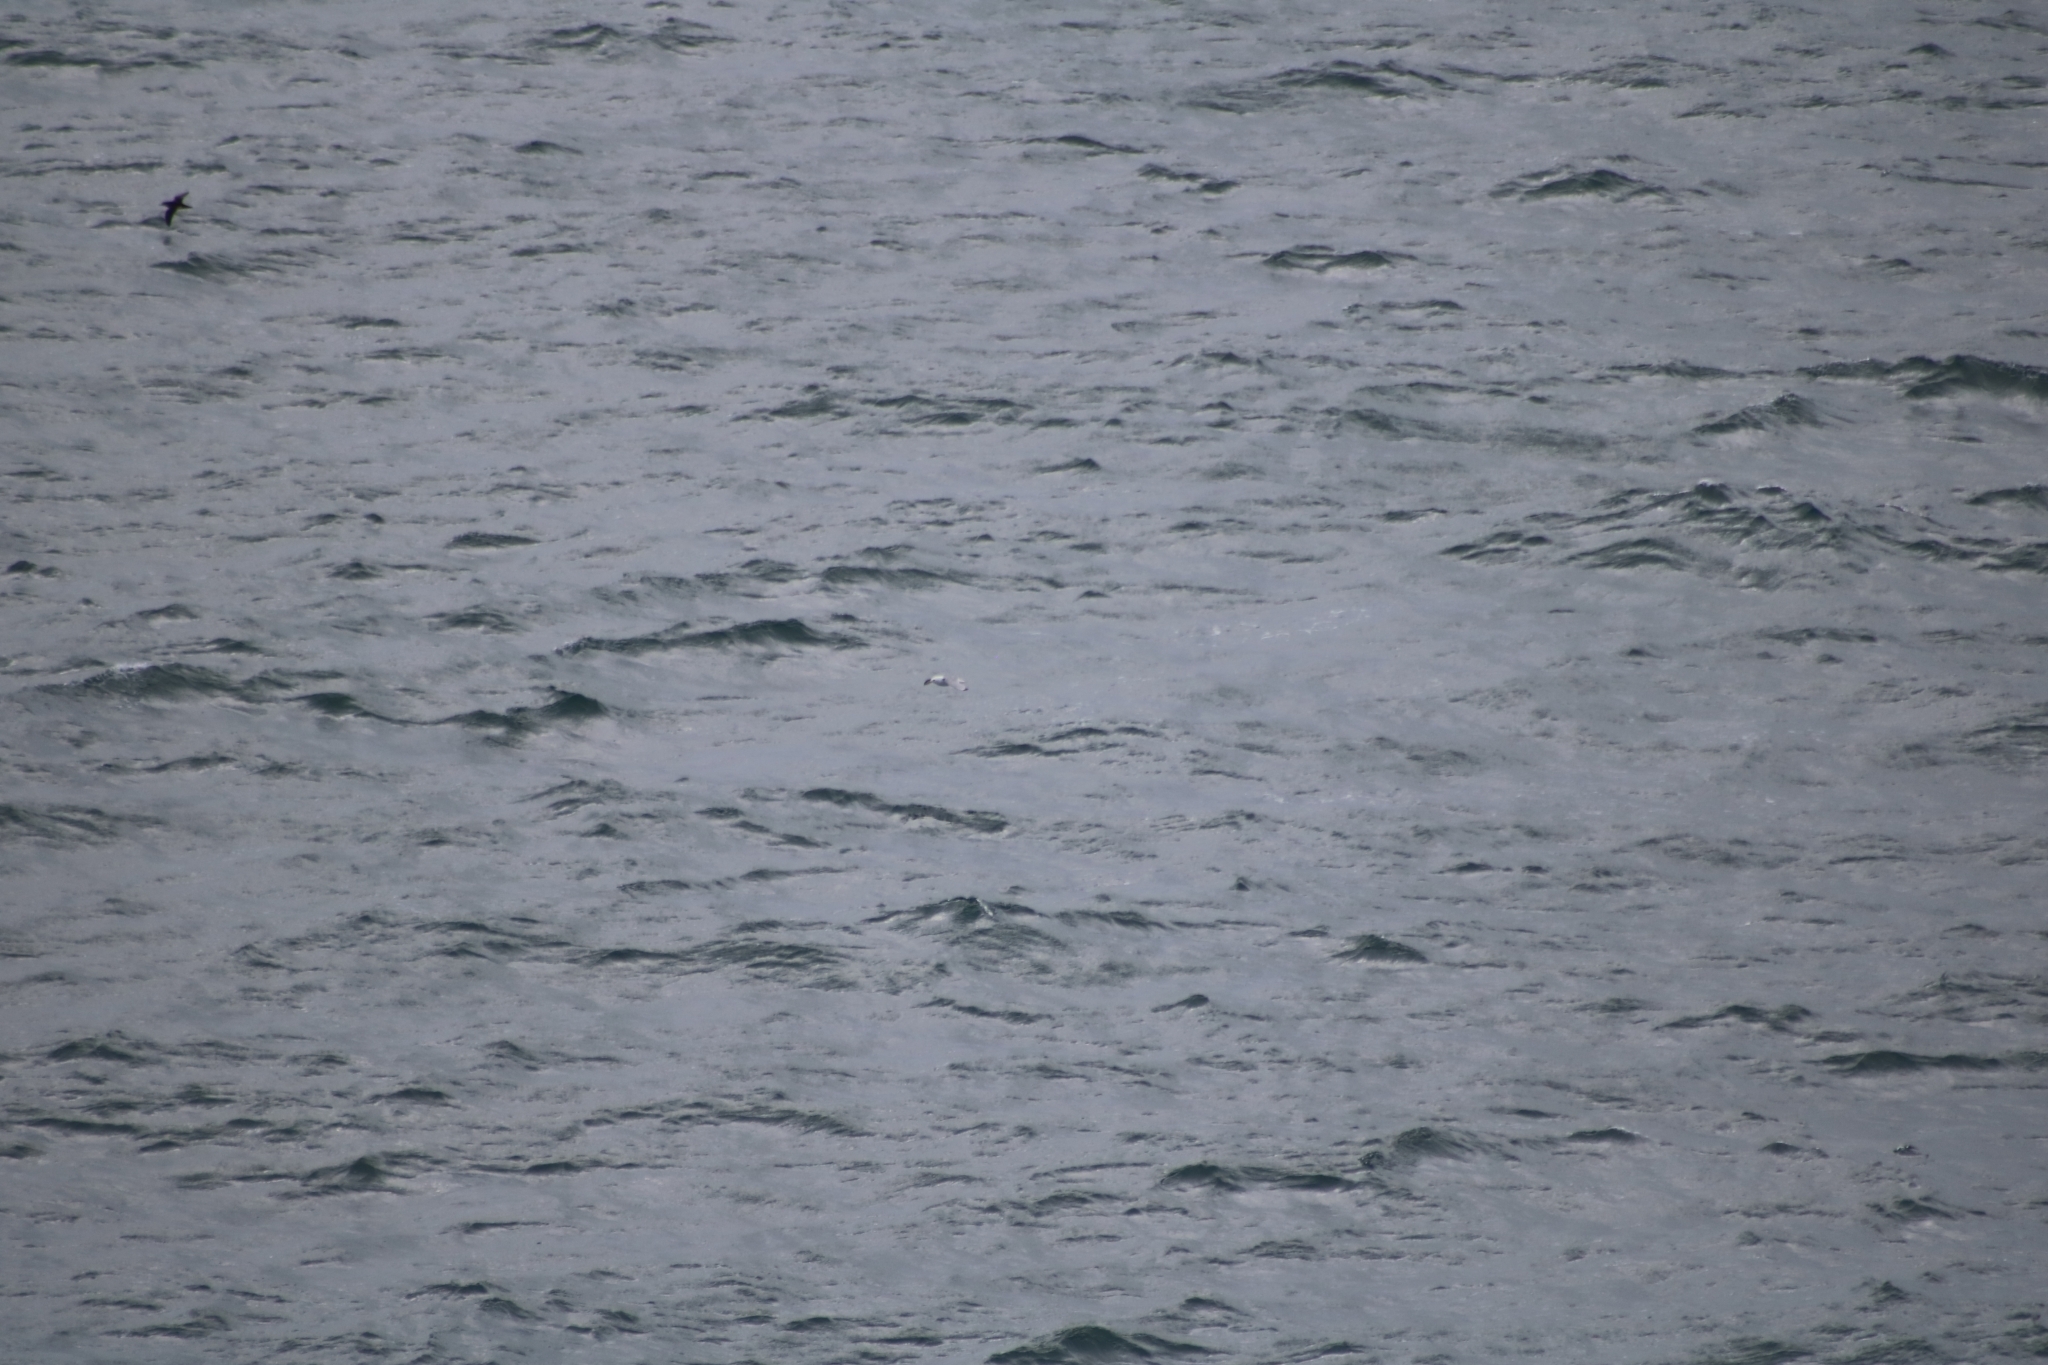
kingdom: Animalia
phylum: Chordata
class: Aves
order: Charadriiformes
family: Laridae
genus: Rissa
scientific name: Rissa tridactyla
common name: Black-legged kittiwake
